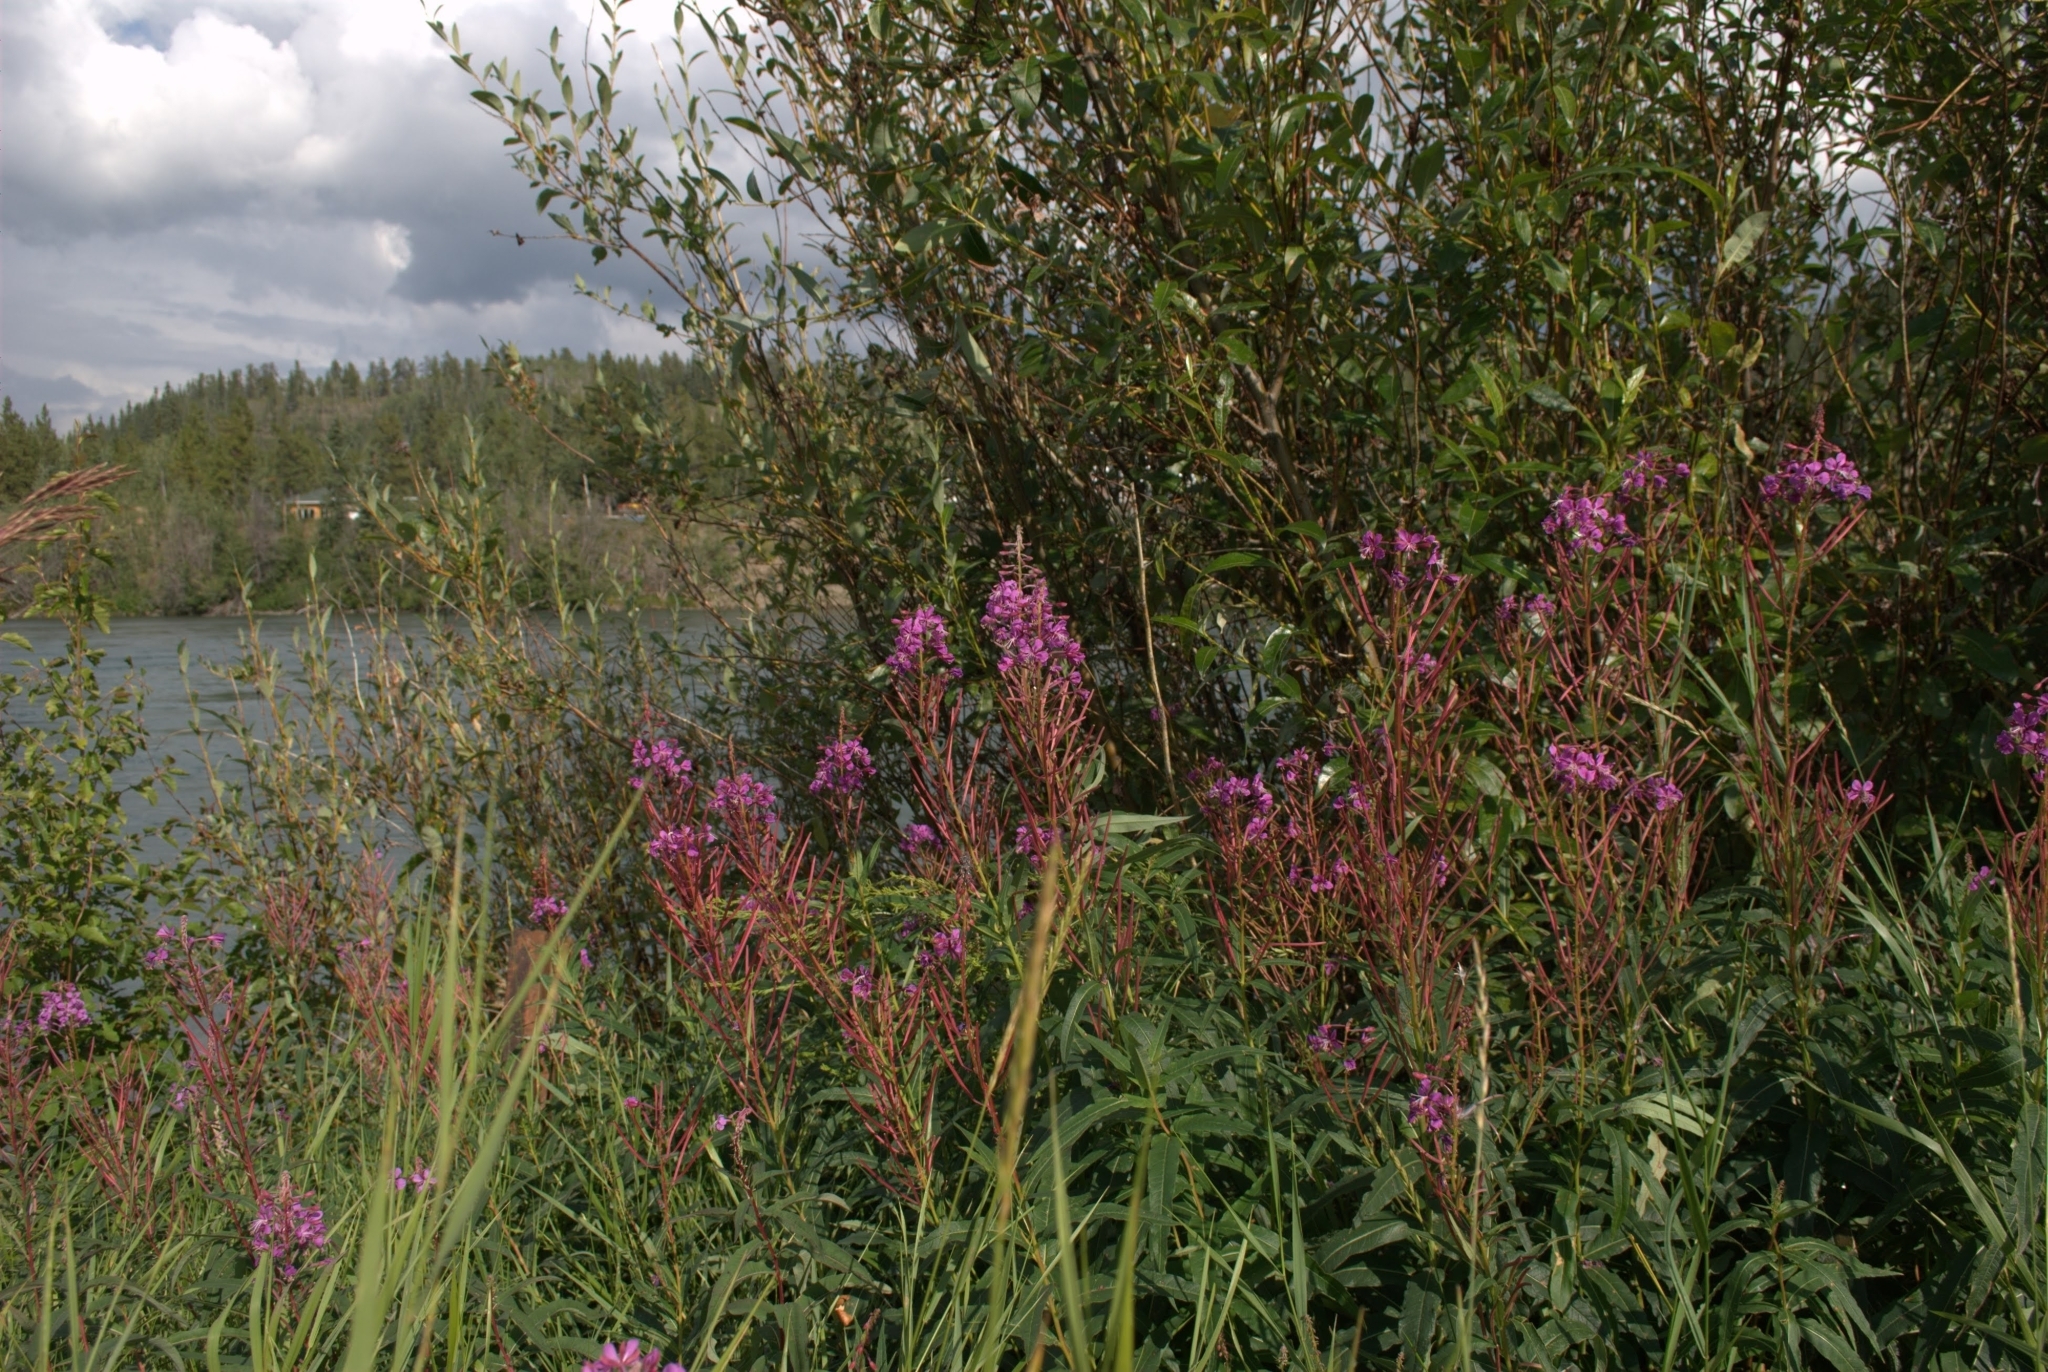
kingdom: Plantae
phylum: Tracheophyta
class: Magnoliopsida
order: Myrtales
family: Onagraceae
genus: Chamaenerion
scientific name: Chamaenerion angustifolium
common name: Fireweed
